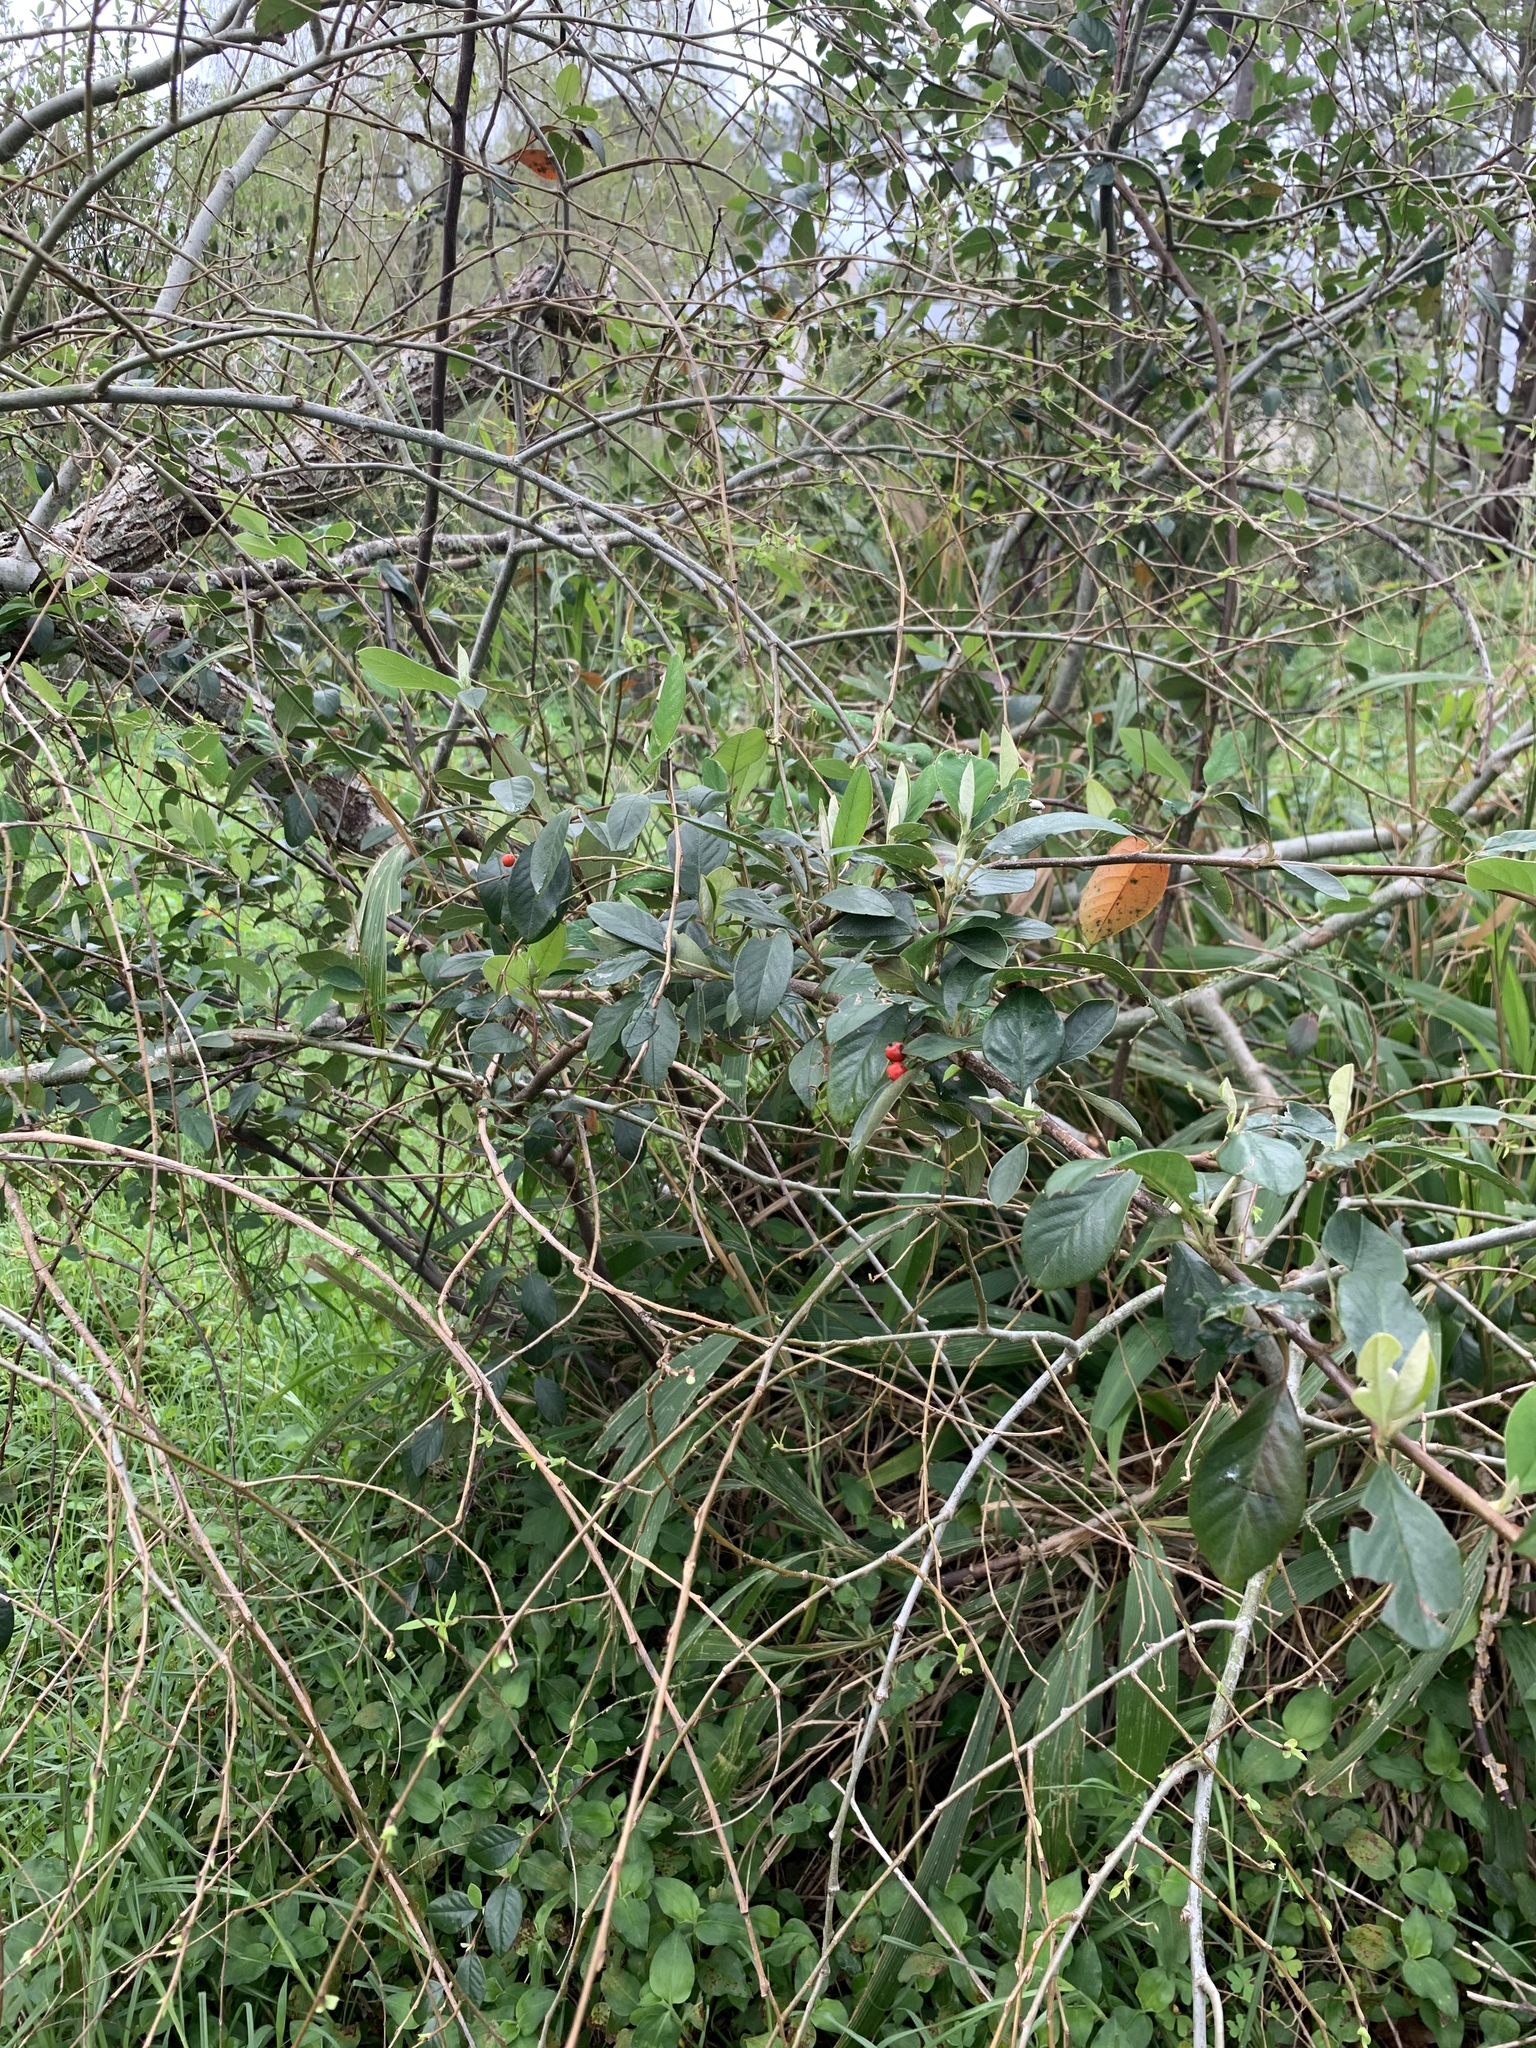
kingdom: Plantae
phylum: Tracheophyta
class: Magnoliopsida
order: Rosales
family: Rosaceae
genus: Cotoneaster
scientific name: Cotoneaster coriaceus
